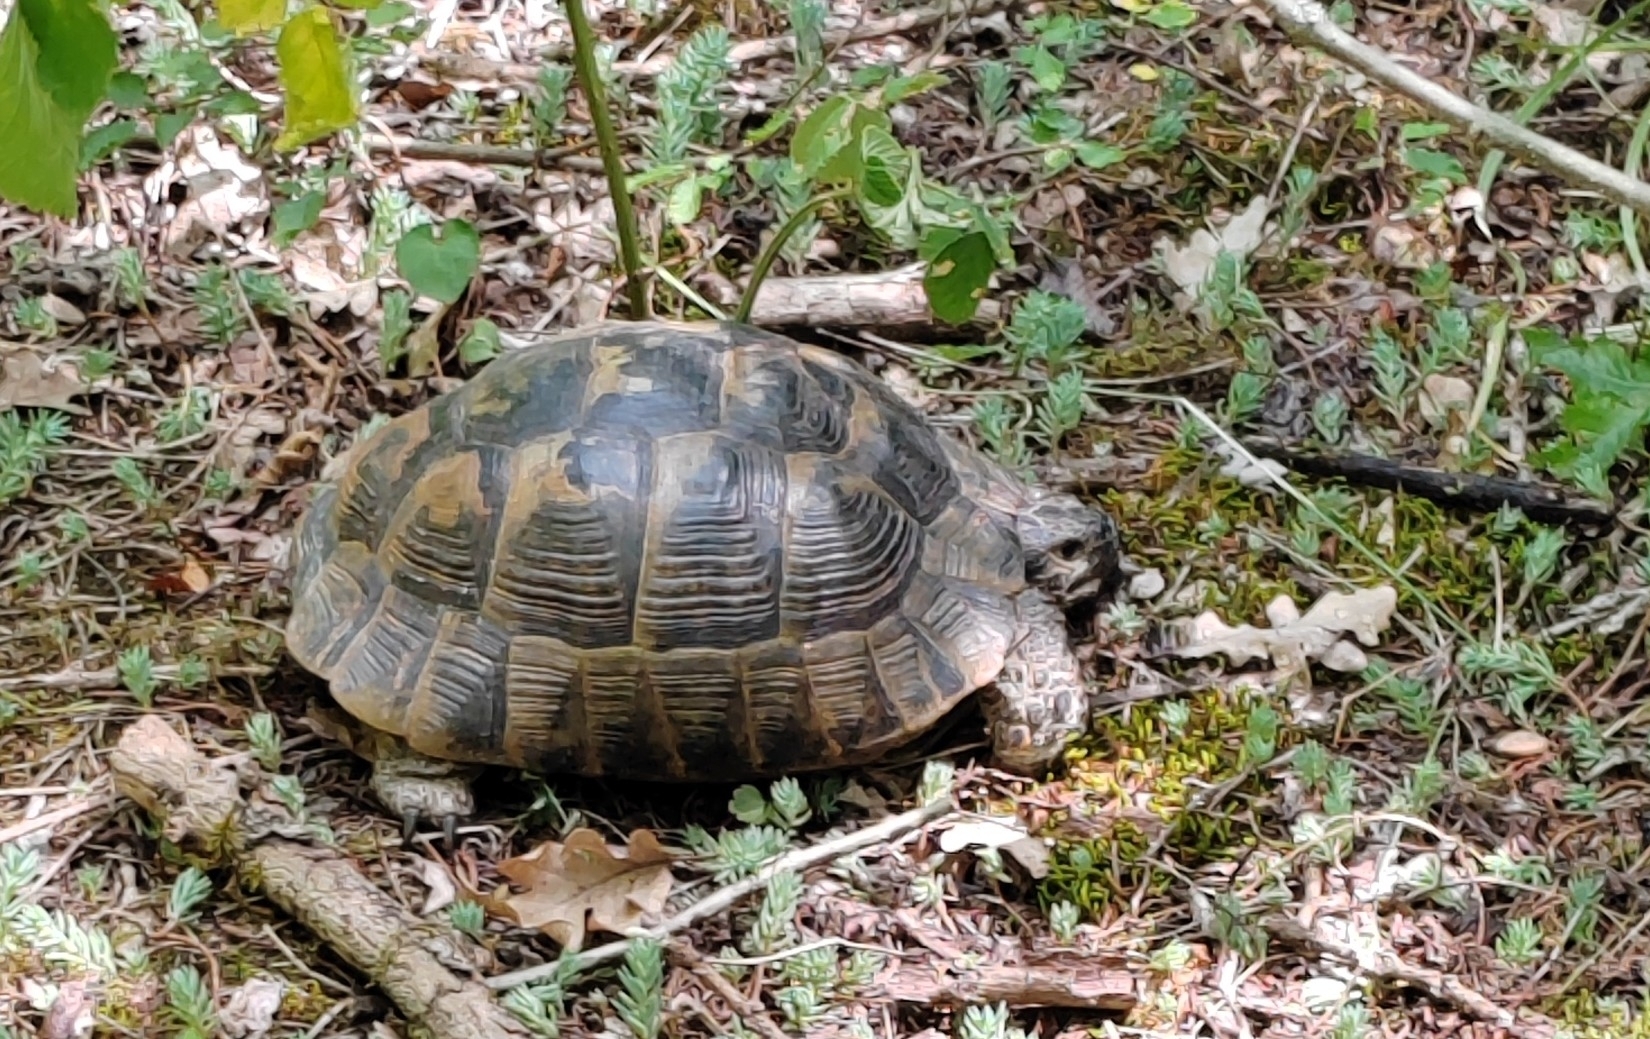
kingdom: Animalia
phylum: Chordata
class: Testudines
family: Testudinidae
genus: Testudo
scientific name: Testudo graeca
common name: Common tortoise
